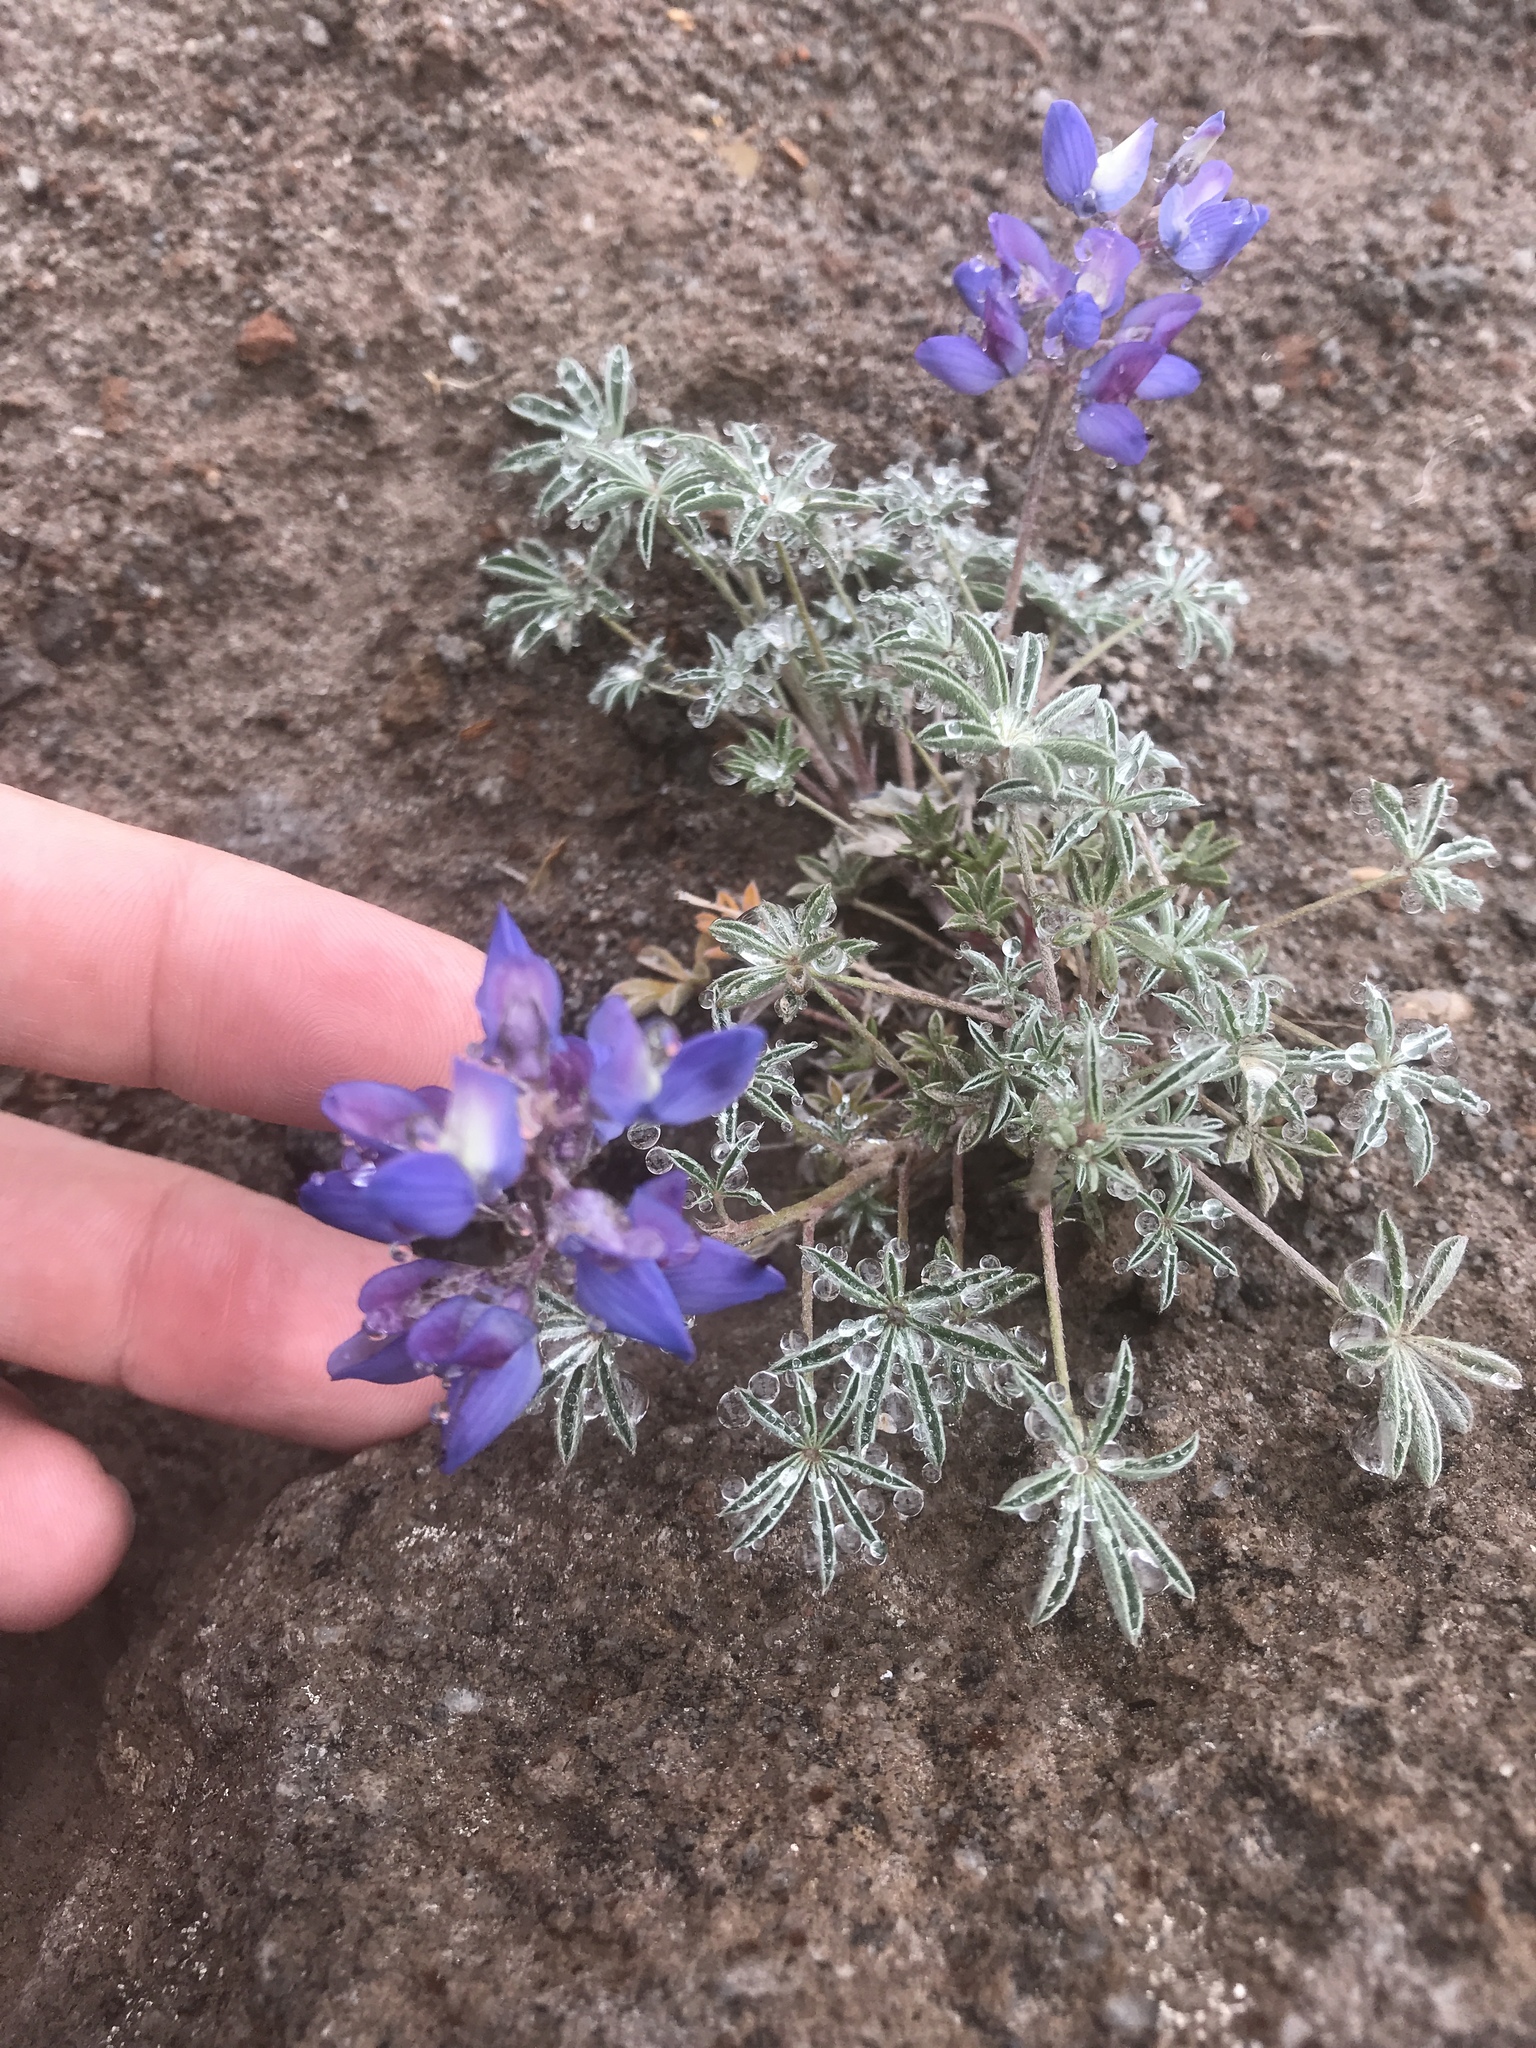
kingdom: Plantae
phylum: Tracheophyta
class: Magnoliopsida
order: Fabales
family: Fabaceae
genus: Lupinus
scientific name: Lupinus lepidus
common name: Prairie lupine
